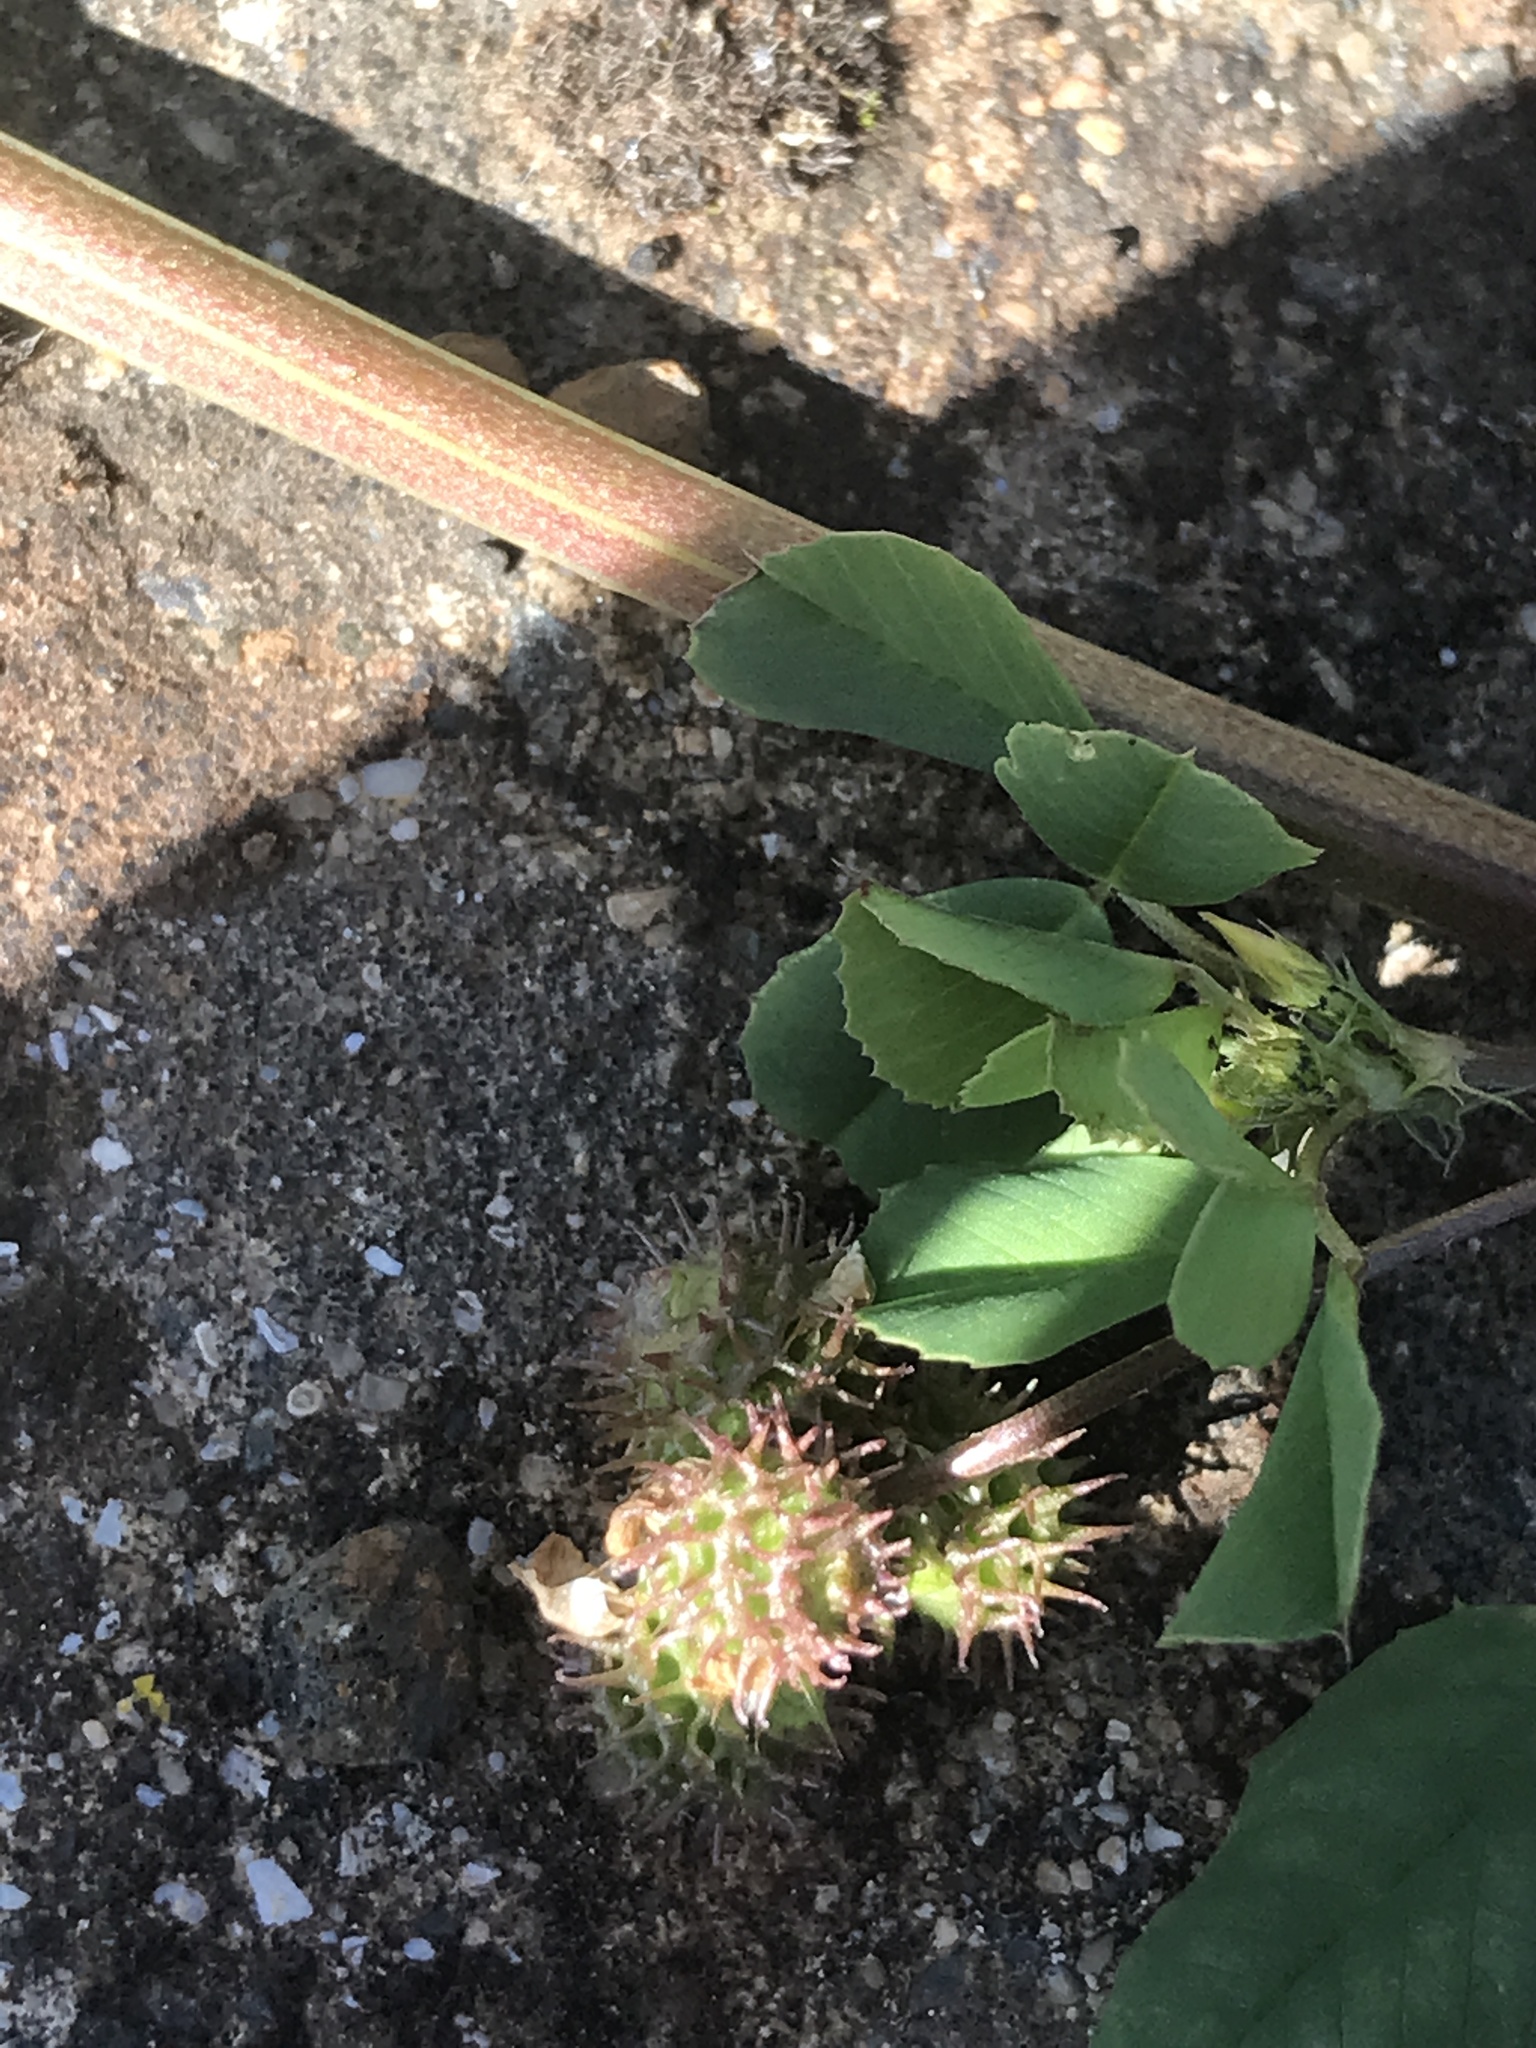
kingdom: Plantae
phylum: Tracheophyta
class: Magnoliopsida
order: Fabales
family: Fabaceae
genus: Medicago
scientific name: Medicago polymorpha
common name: Burclover
